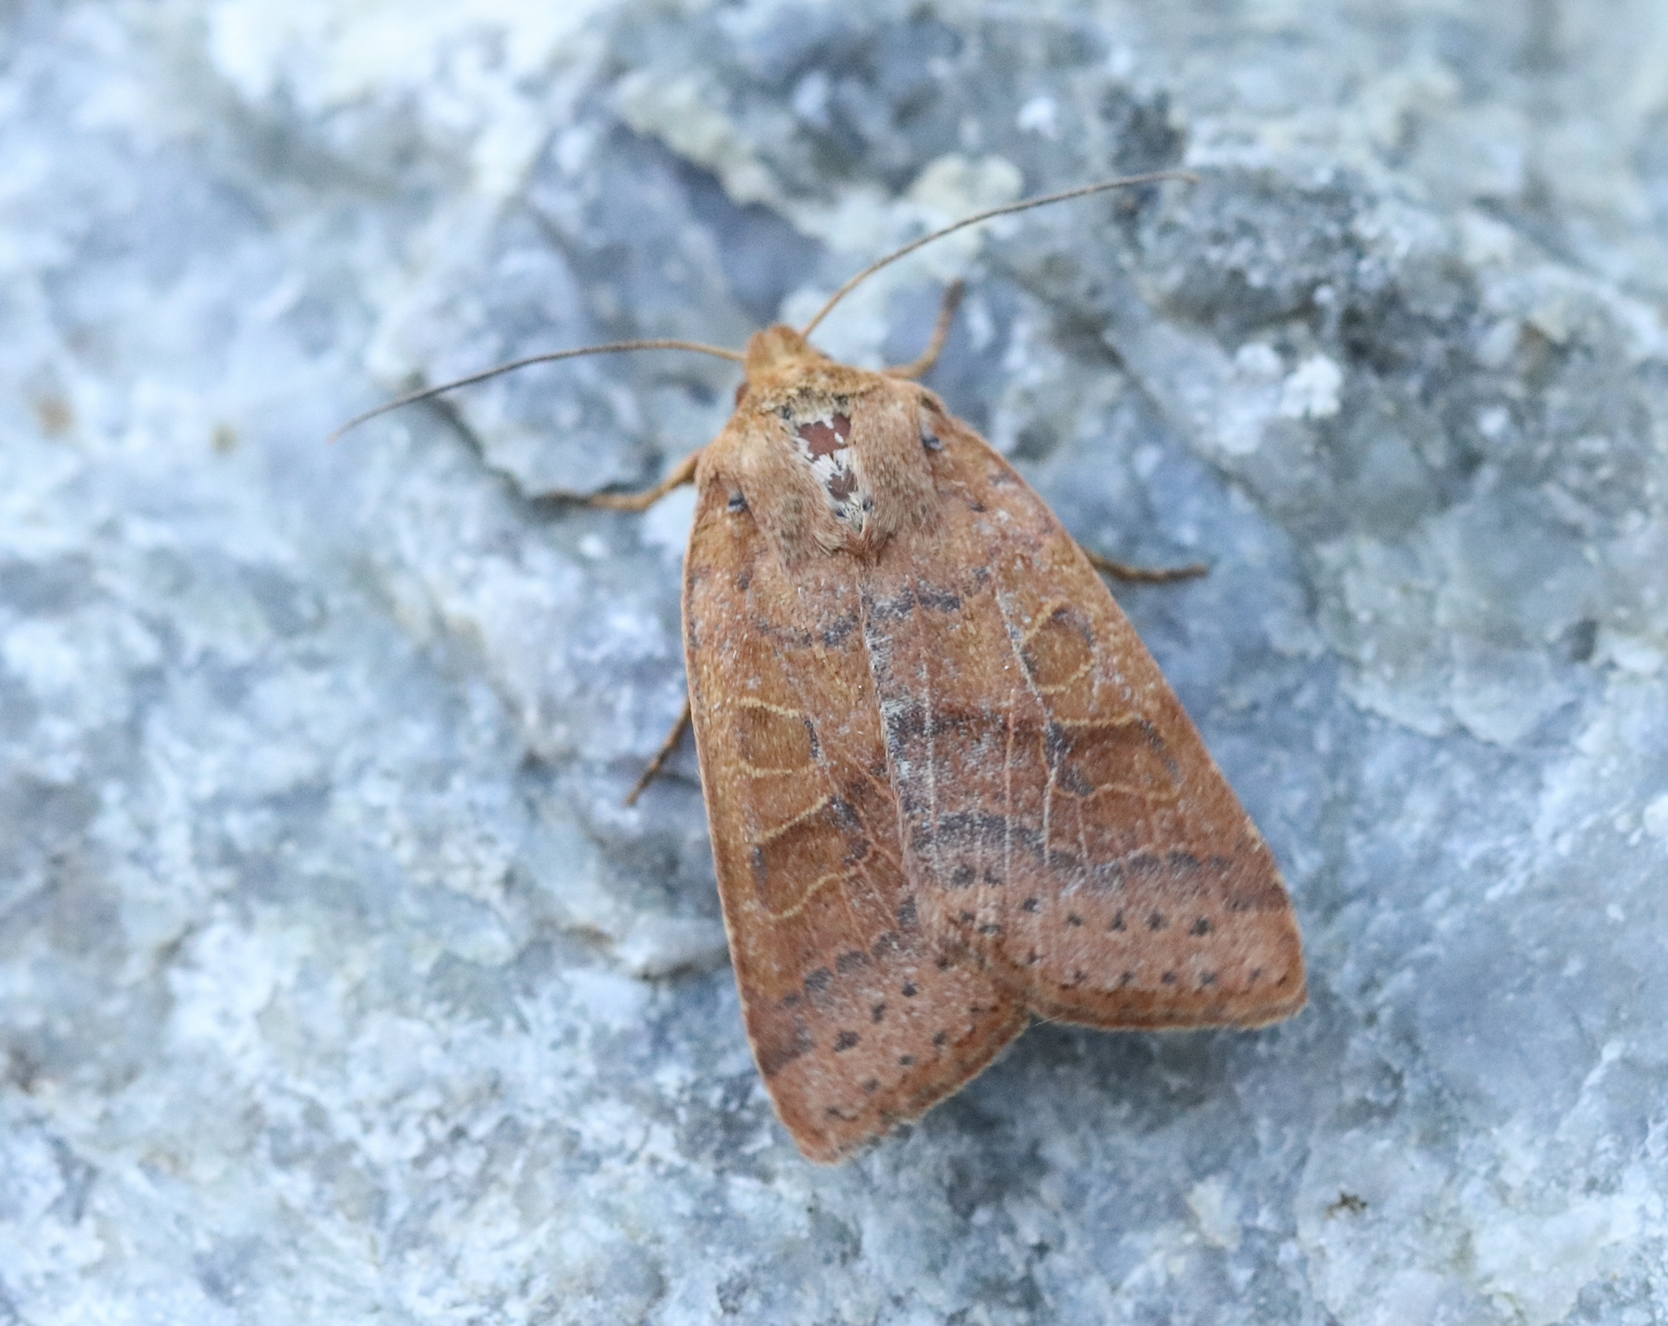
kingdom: Animalia
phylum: Arthropoda
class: Insecta
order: Lepidoptera
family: Noctuidae
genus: Agrochola
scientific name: Agrochola nitida
